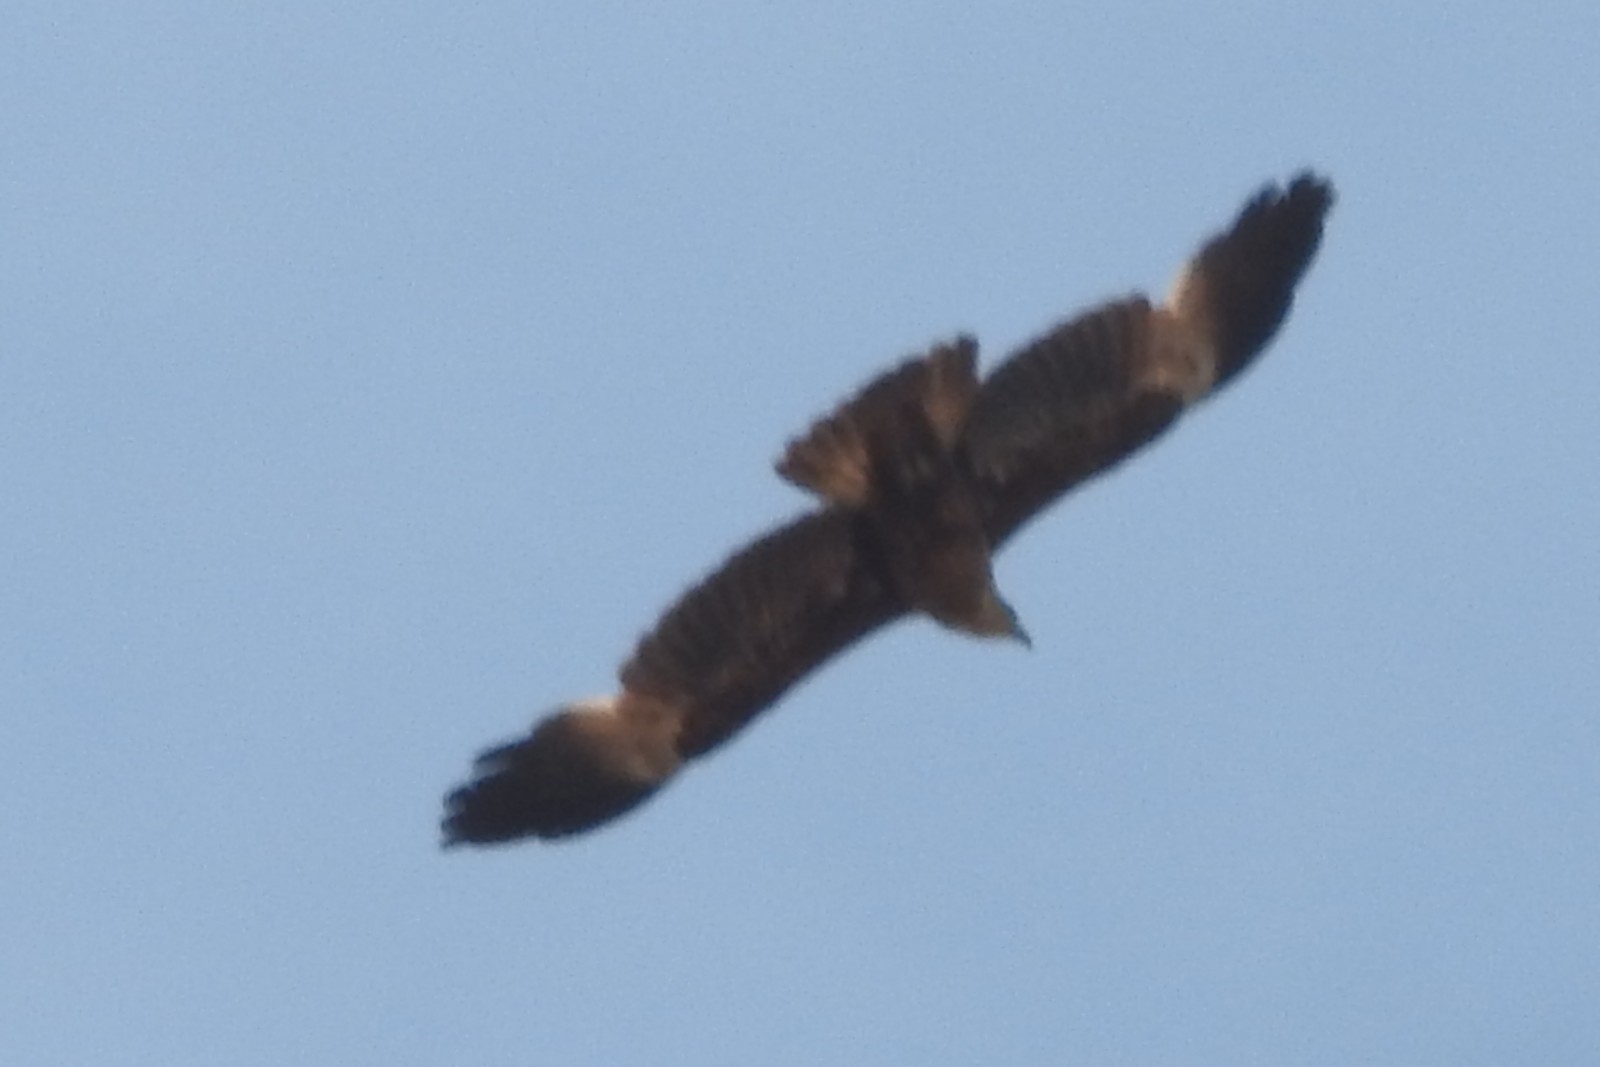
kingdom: Animalia
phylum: Chordata
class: Aves
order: Accipitriformes
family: Accipitridae
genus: Haliastur
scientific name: Haliastur indus
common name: Brahminy kite
